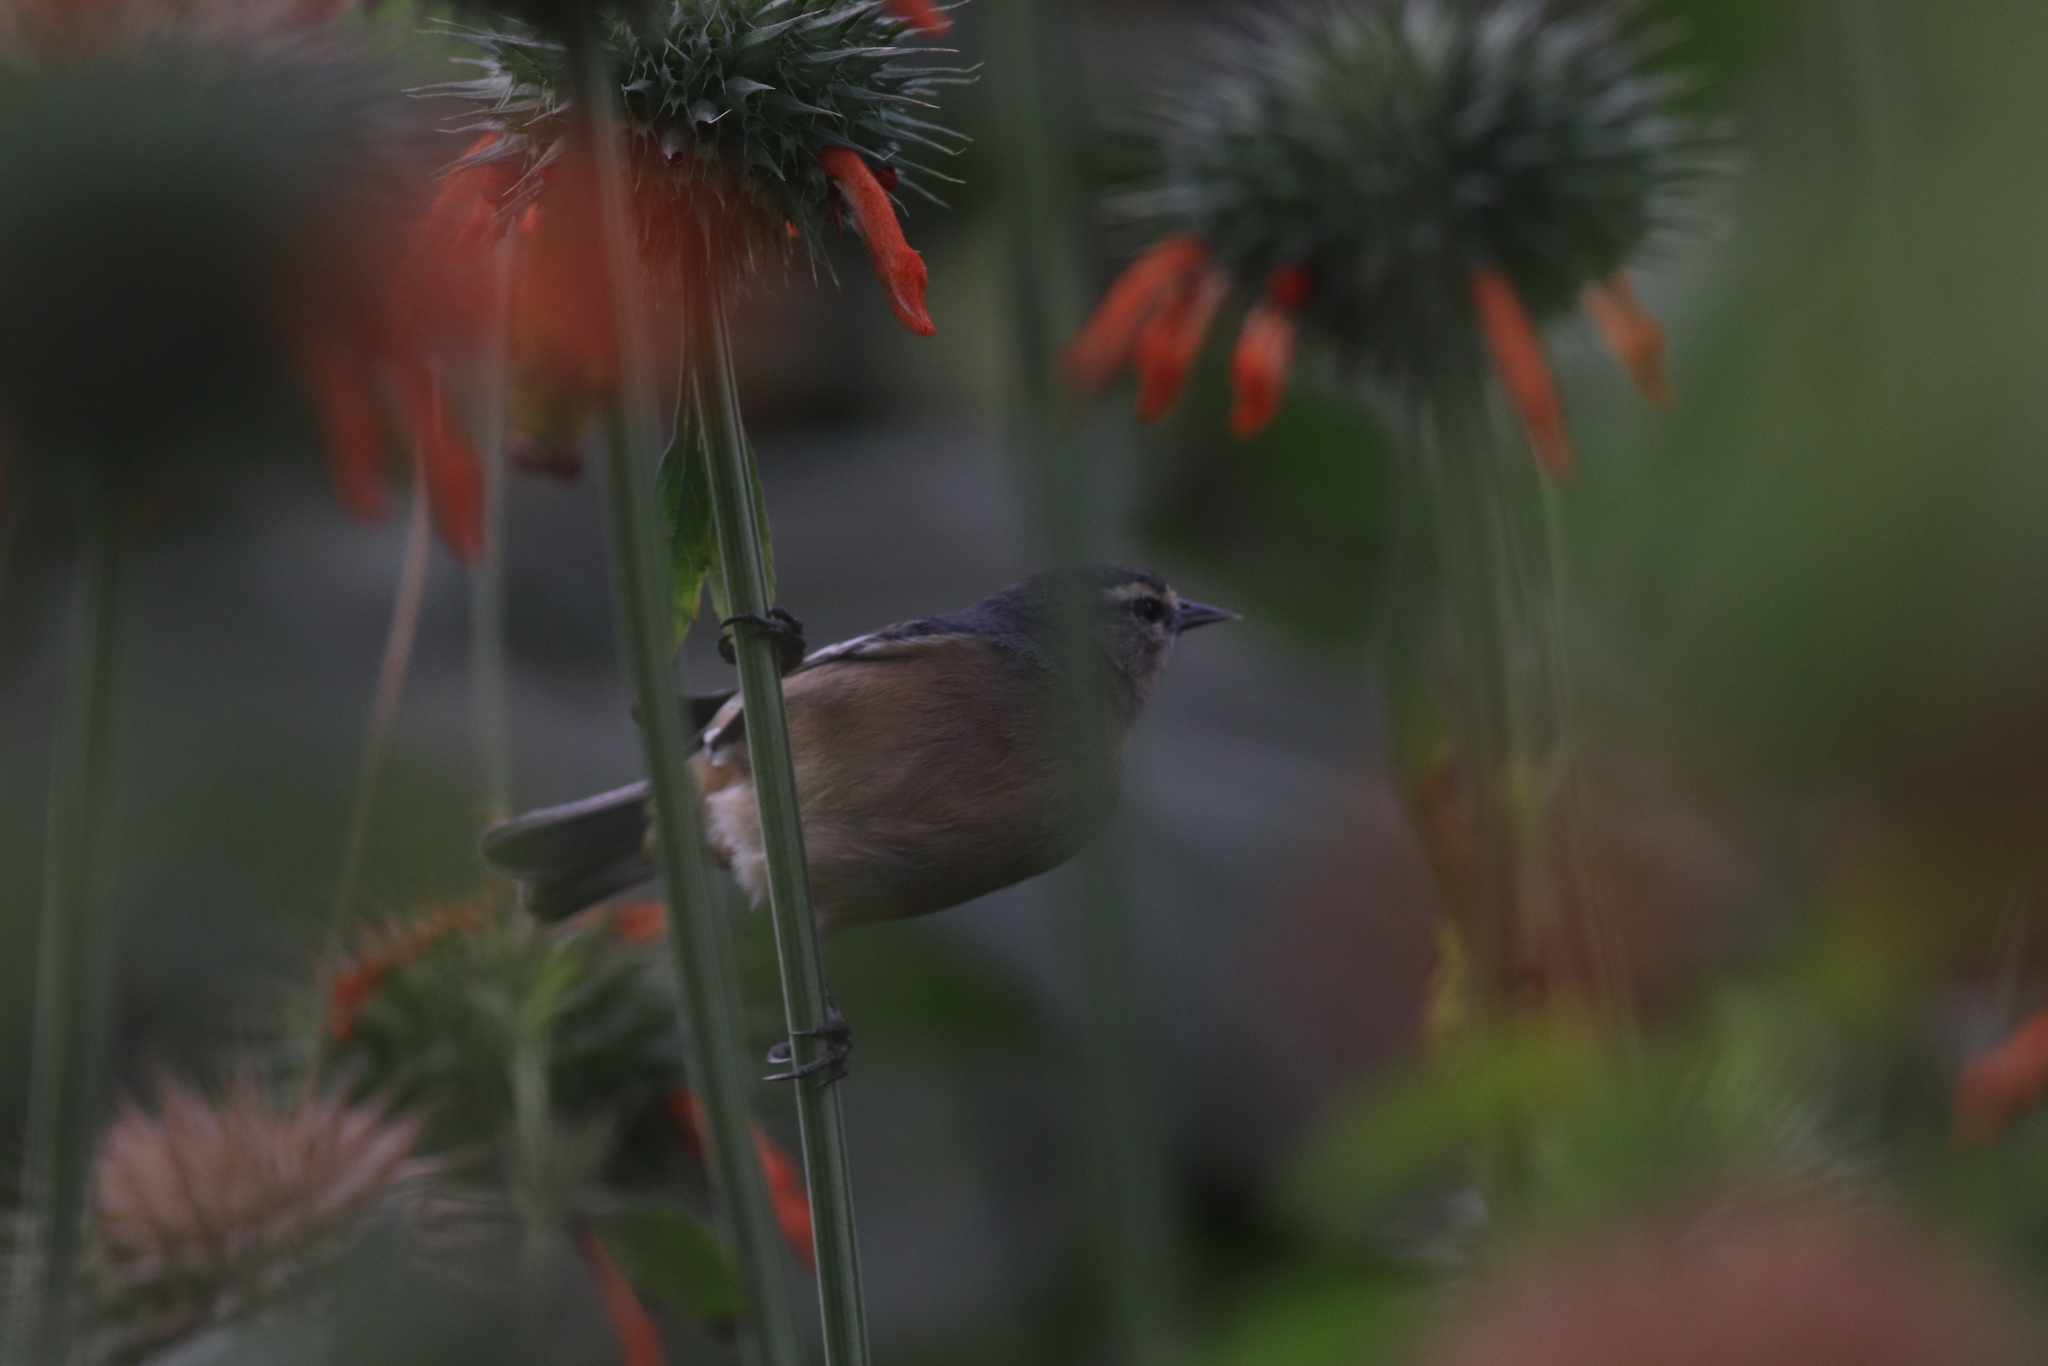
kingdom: Animalia
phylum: Chordata
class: Aves
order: Passeriformes
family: Thraupidae
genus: Conirostrum
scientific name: Conirostrum cinereum
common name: Cinereous conebill
